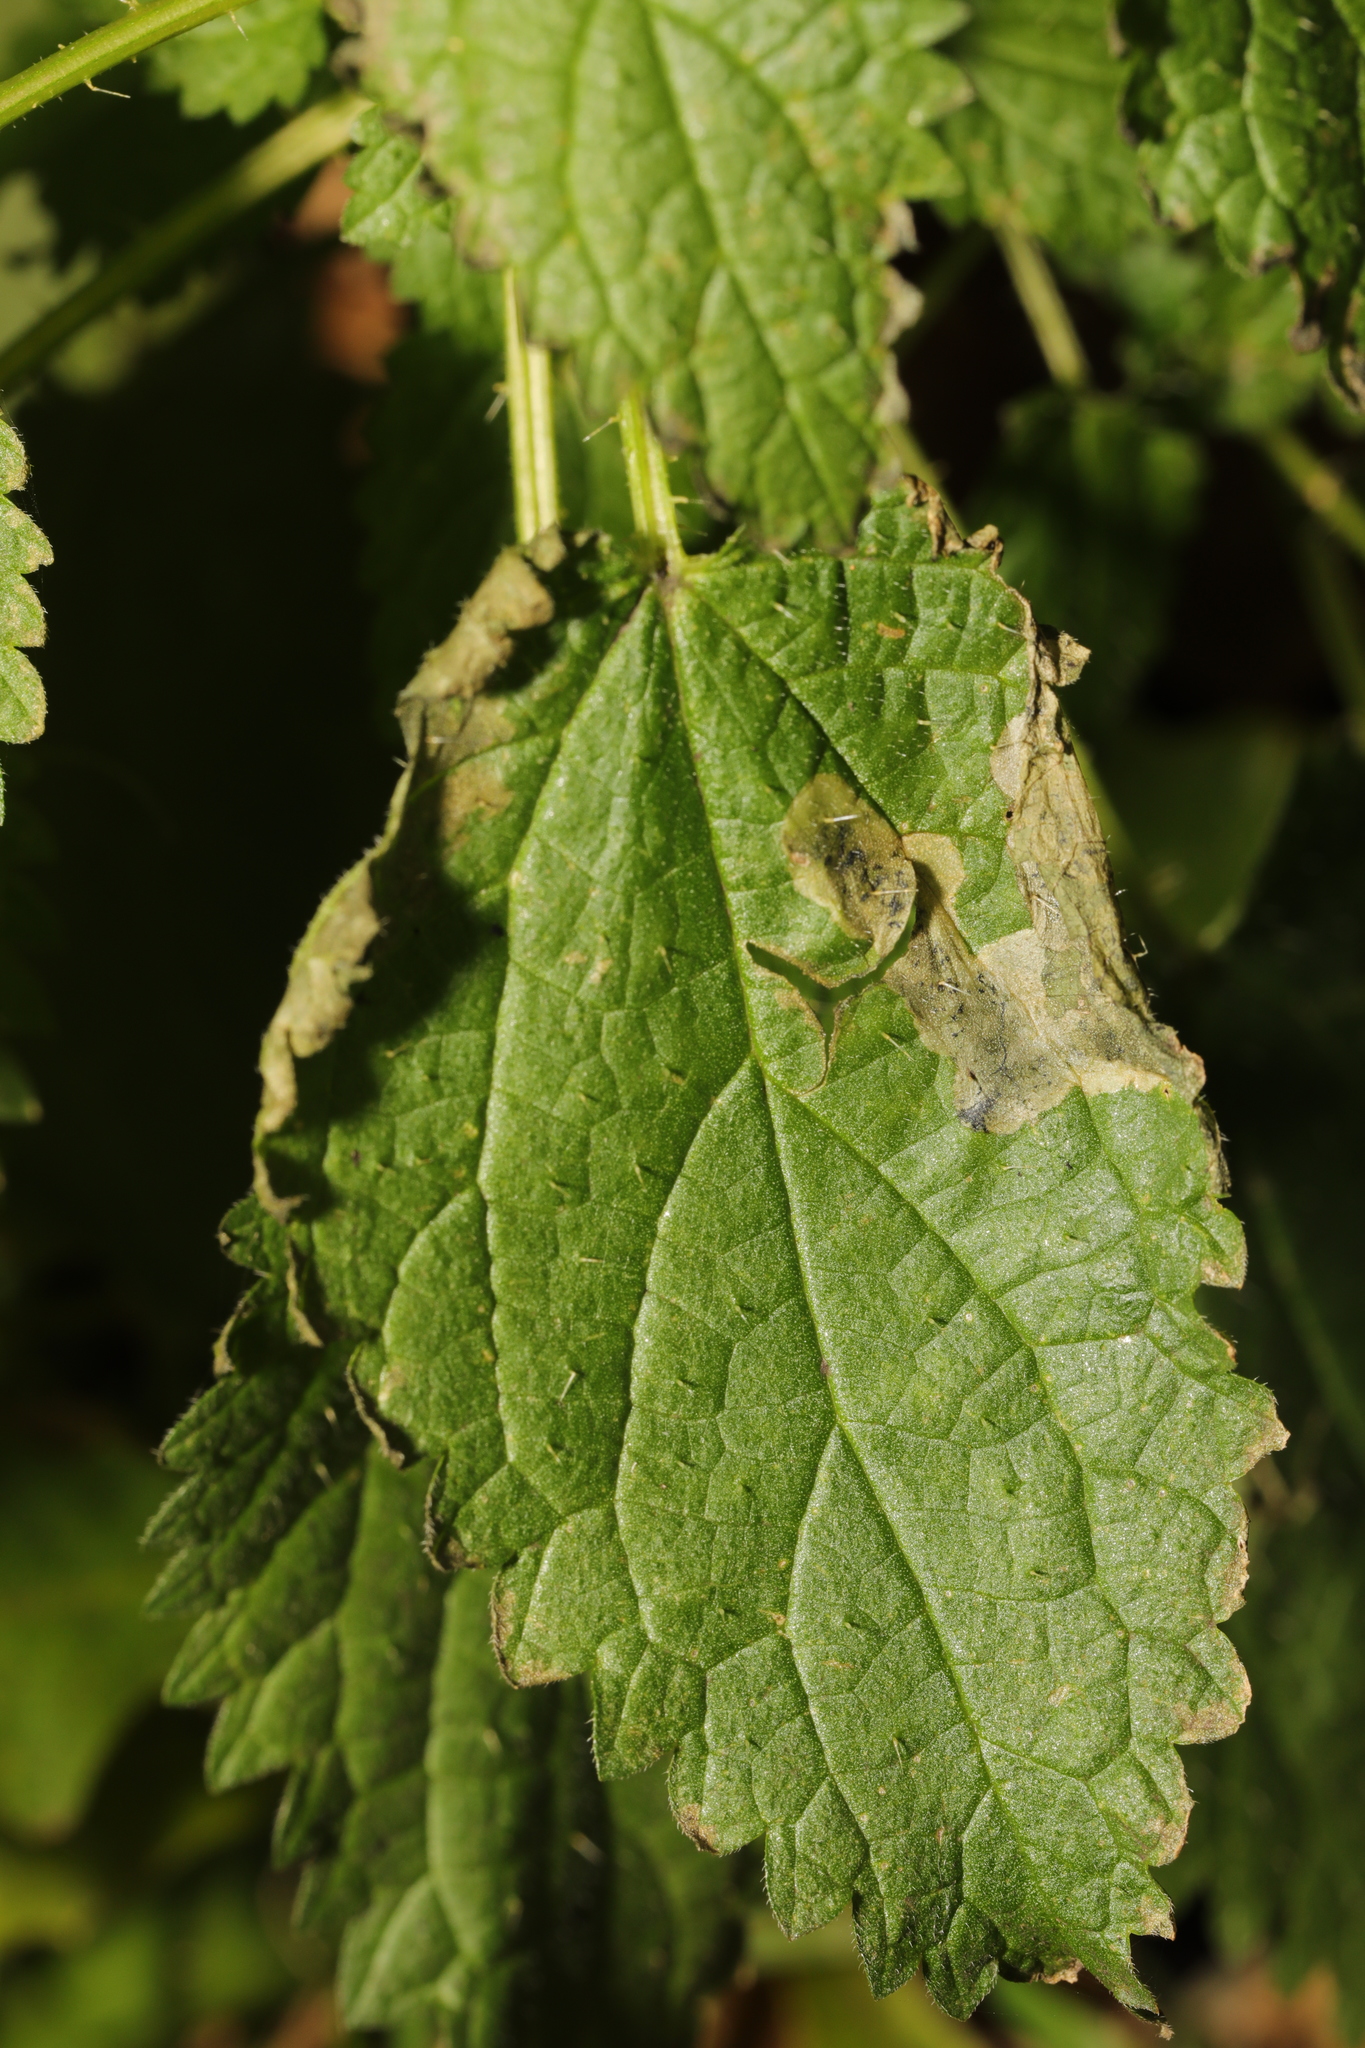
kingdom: Animalia
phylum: Arthropoda
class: Insecta
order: Diptera
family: Agromyzidae
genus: Agromyza
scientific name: Agromyza anthracina
